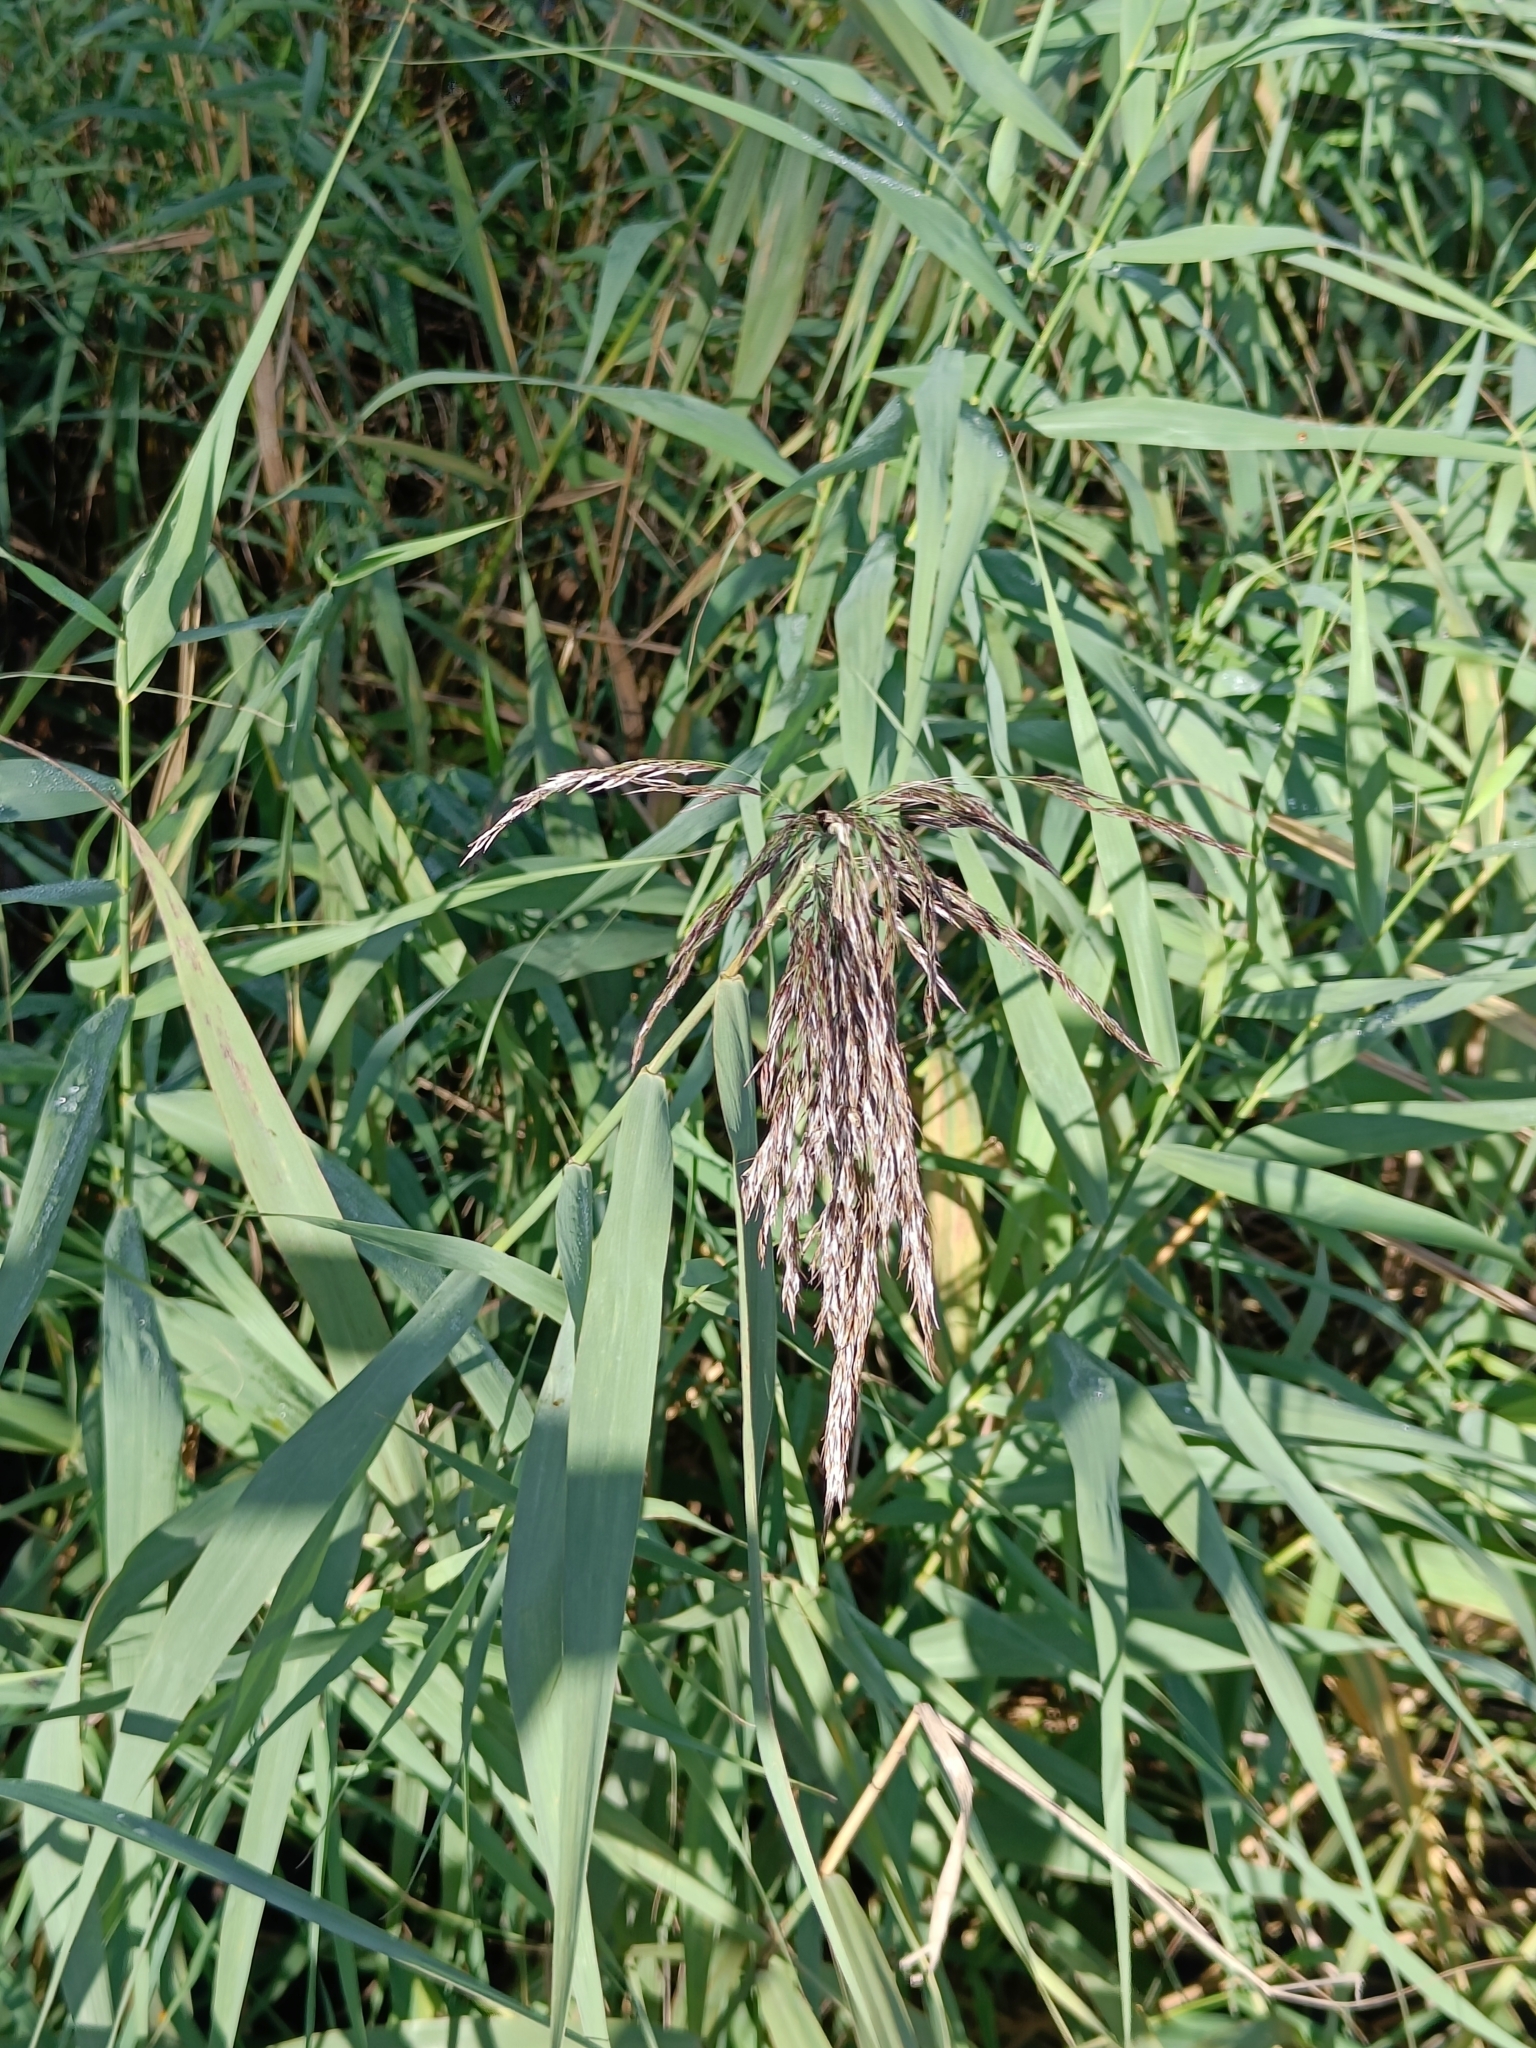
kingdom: Plantae
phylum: Tracheophyta
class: Liliopsida
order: Poales
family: Poaceae
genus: Phragmites
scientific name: Phragmites australis
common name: Common reed
